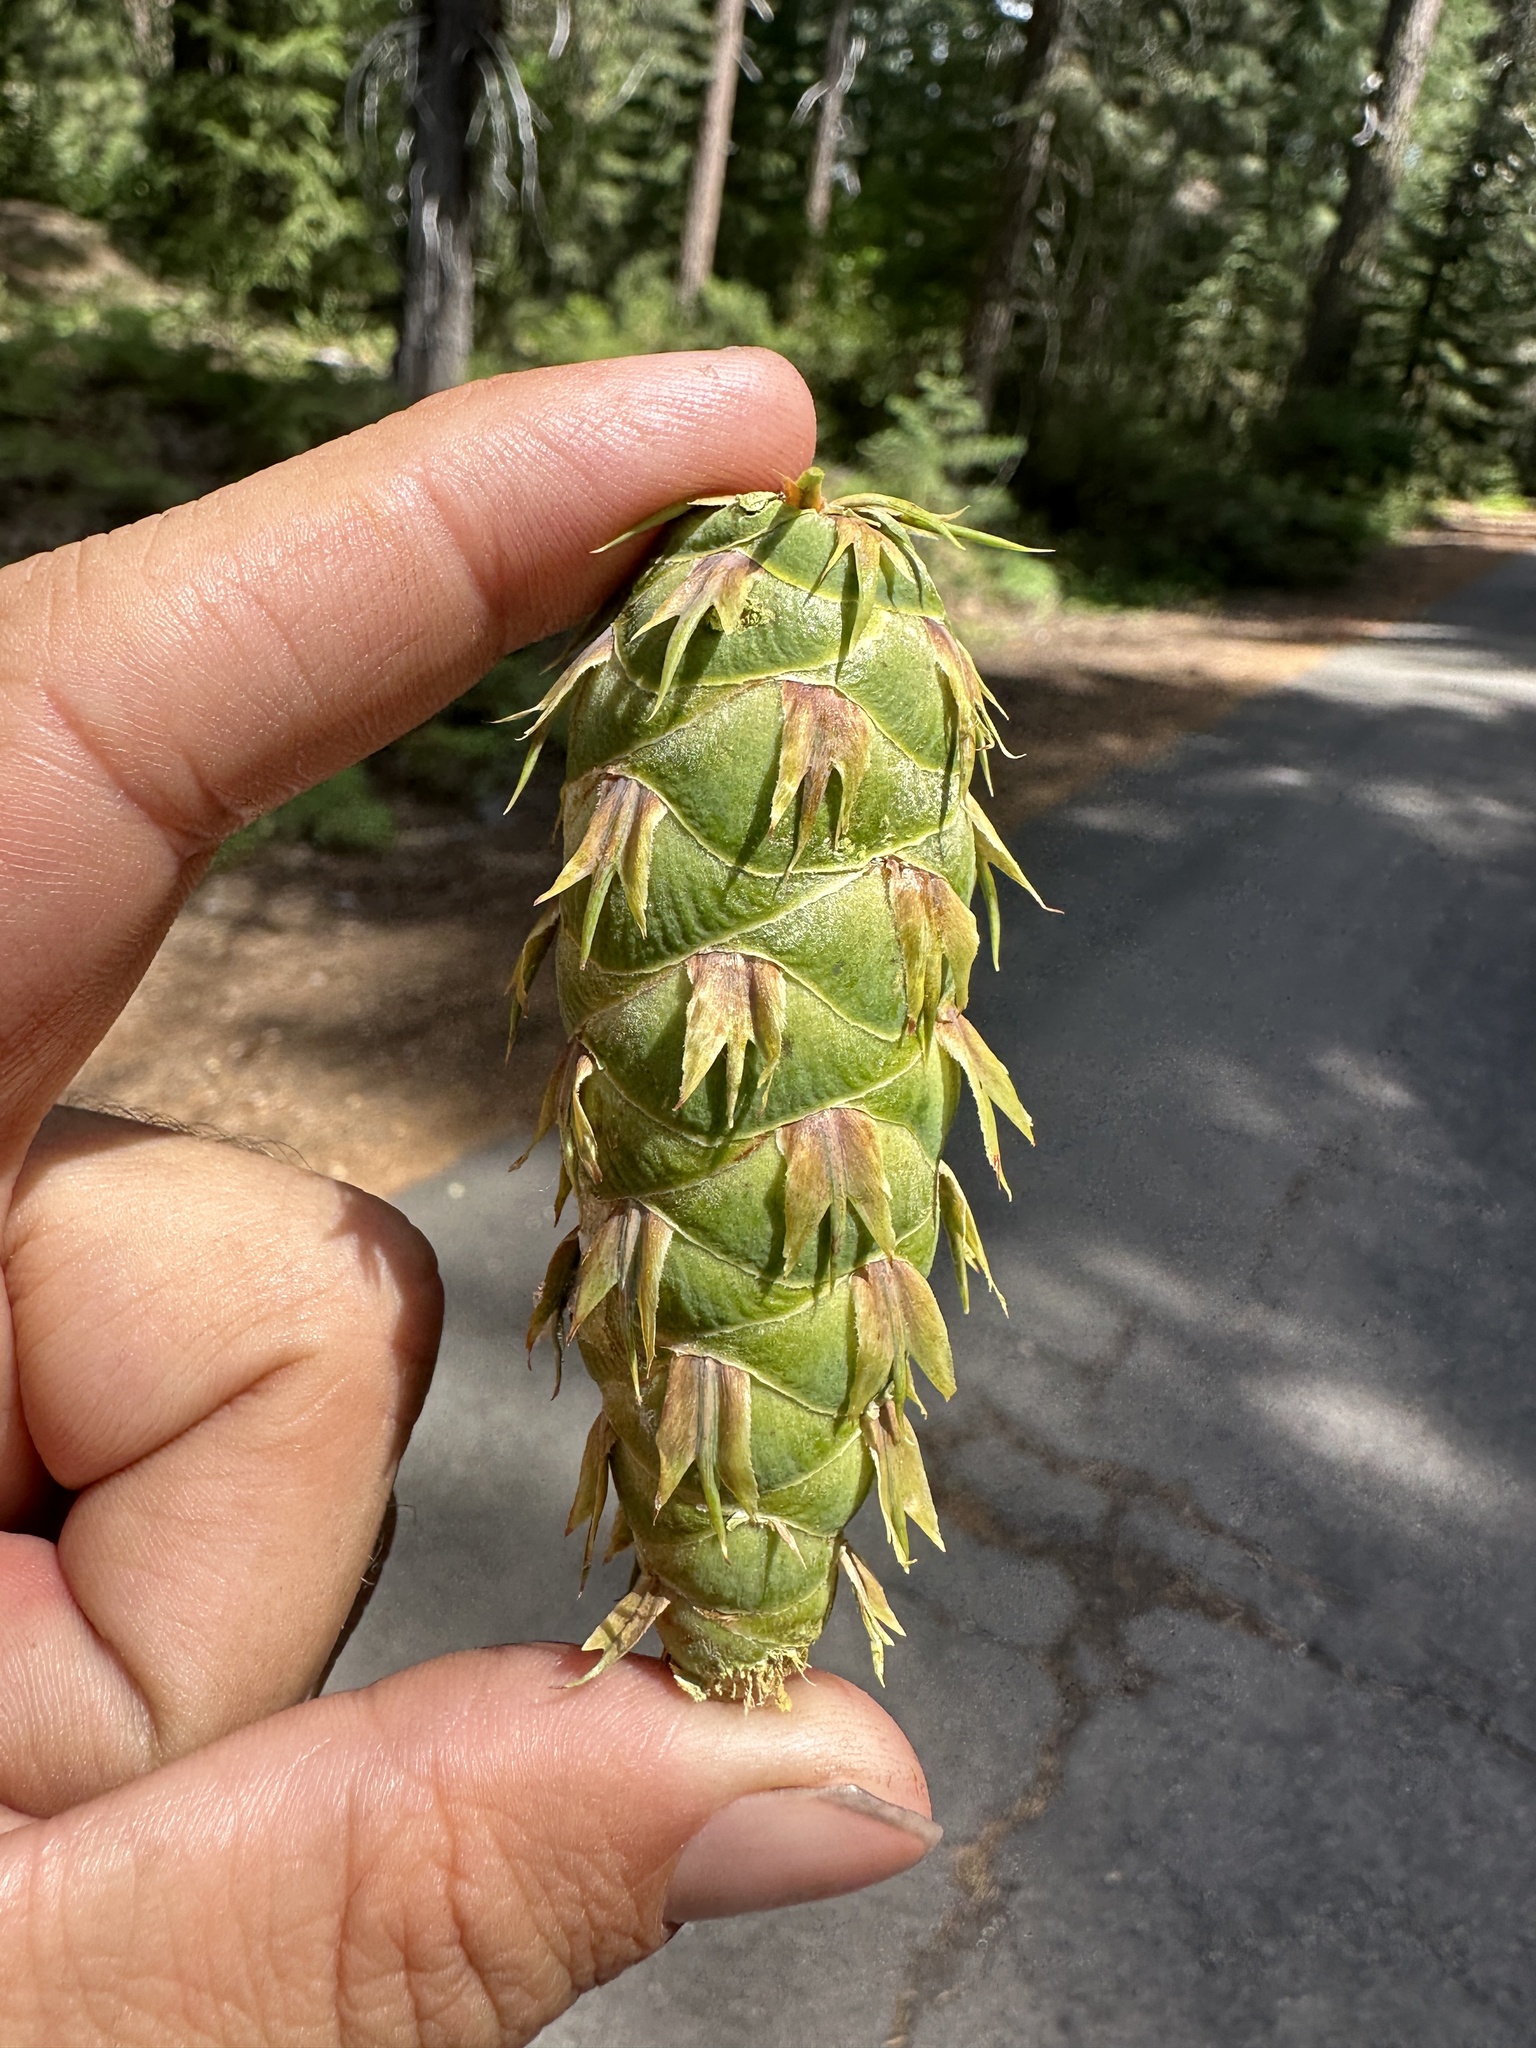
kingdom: Plantae
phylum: Tracheophyta
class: Pinopsida
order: Pinales
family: Pinaceae
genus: Pseudotsuga
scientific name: Pseudotsuga menziesii
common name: Douglas fir
